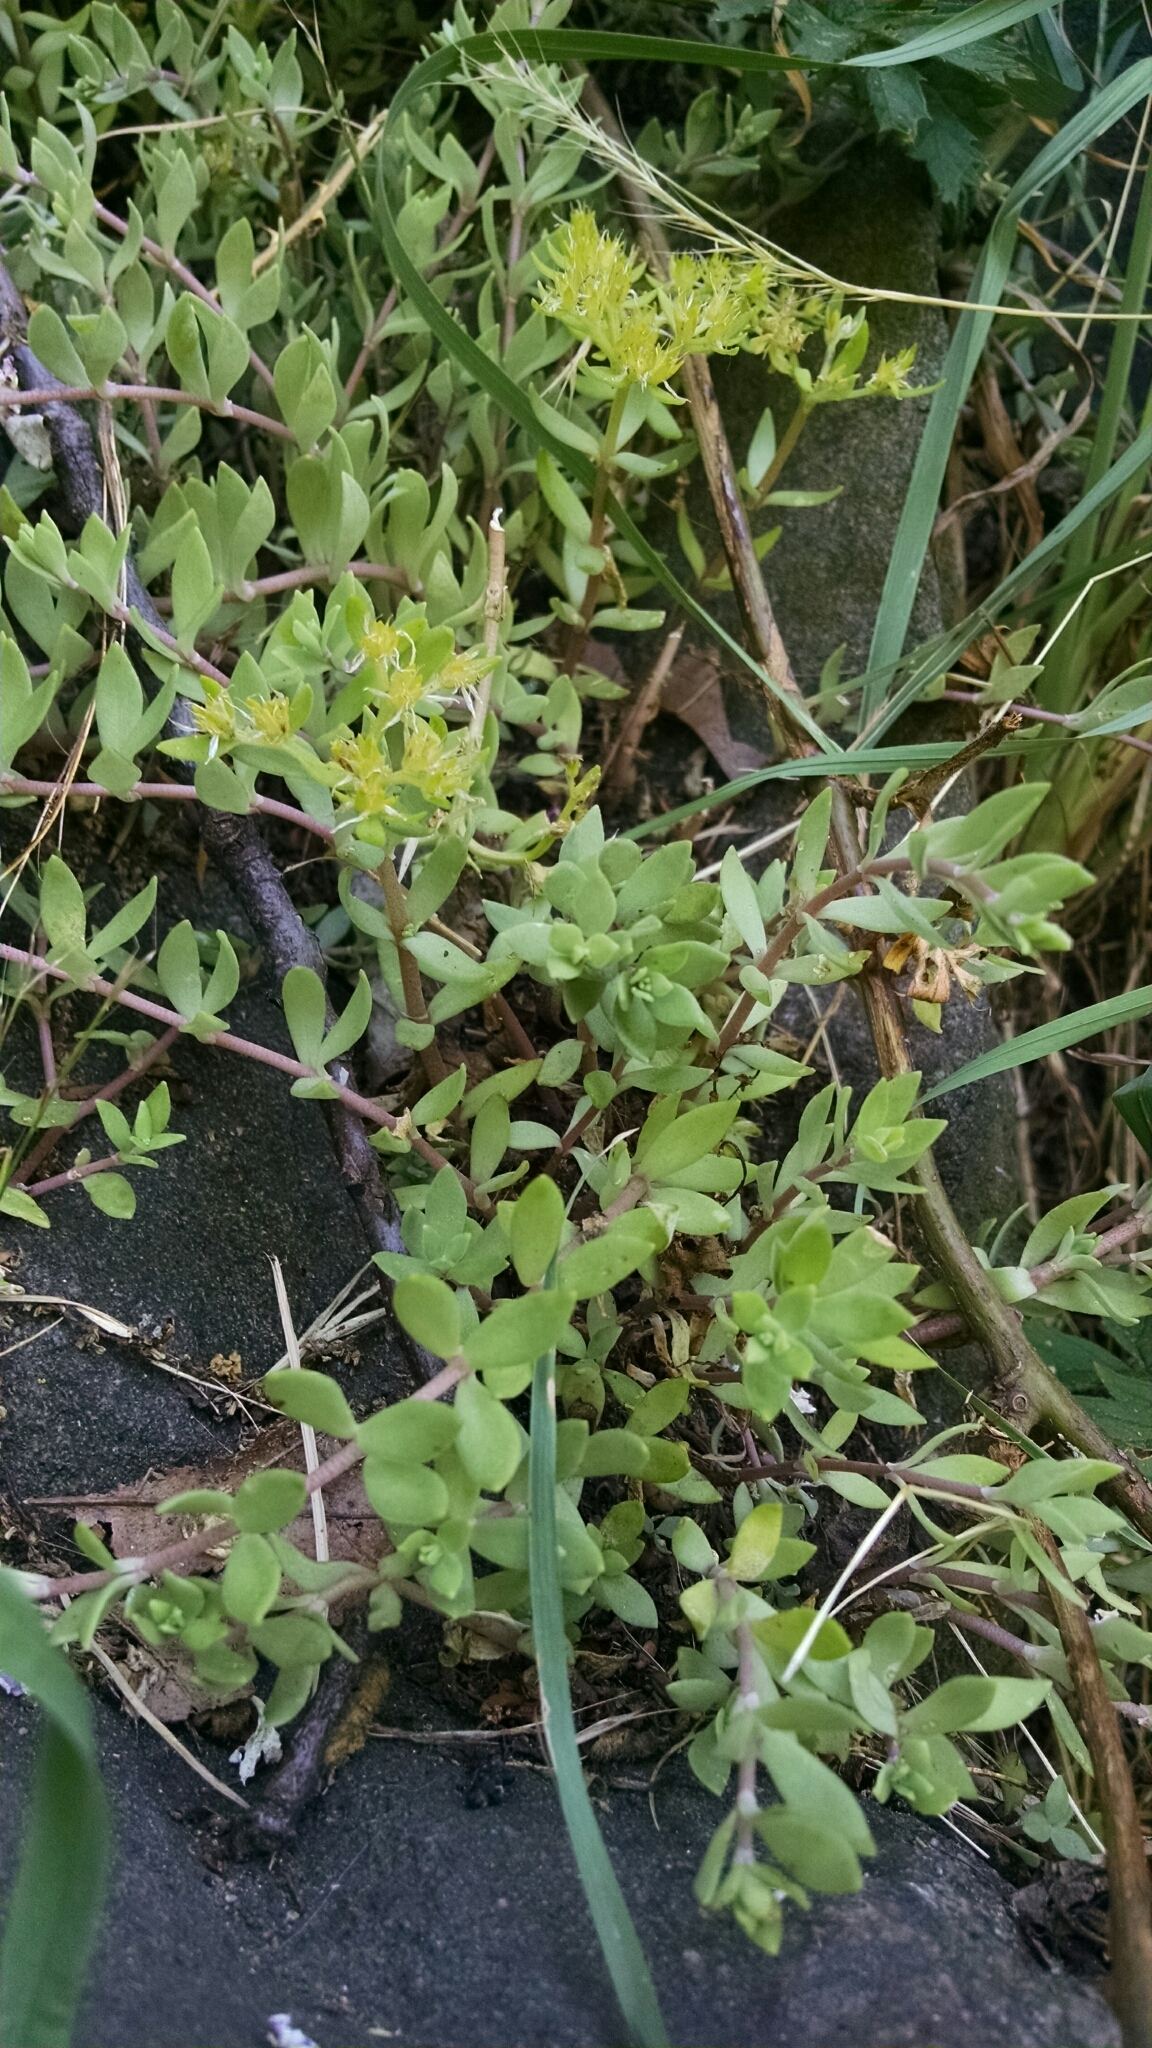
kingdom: Plantae
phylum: Tracheophyta
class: Magnoliopsida
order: Saxifragales
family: Crassulaceae
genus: Sedum
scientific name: Sedum sarmentosum
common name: Stringy stonecrop
